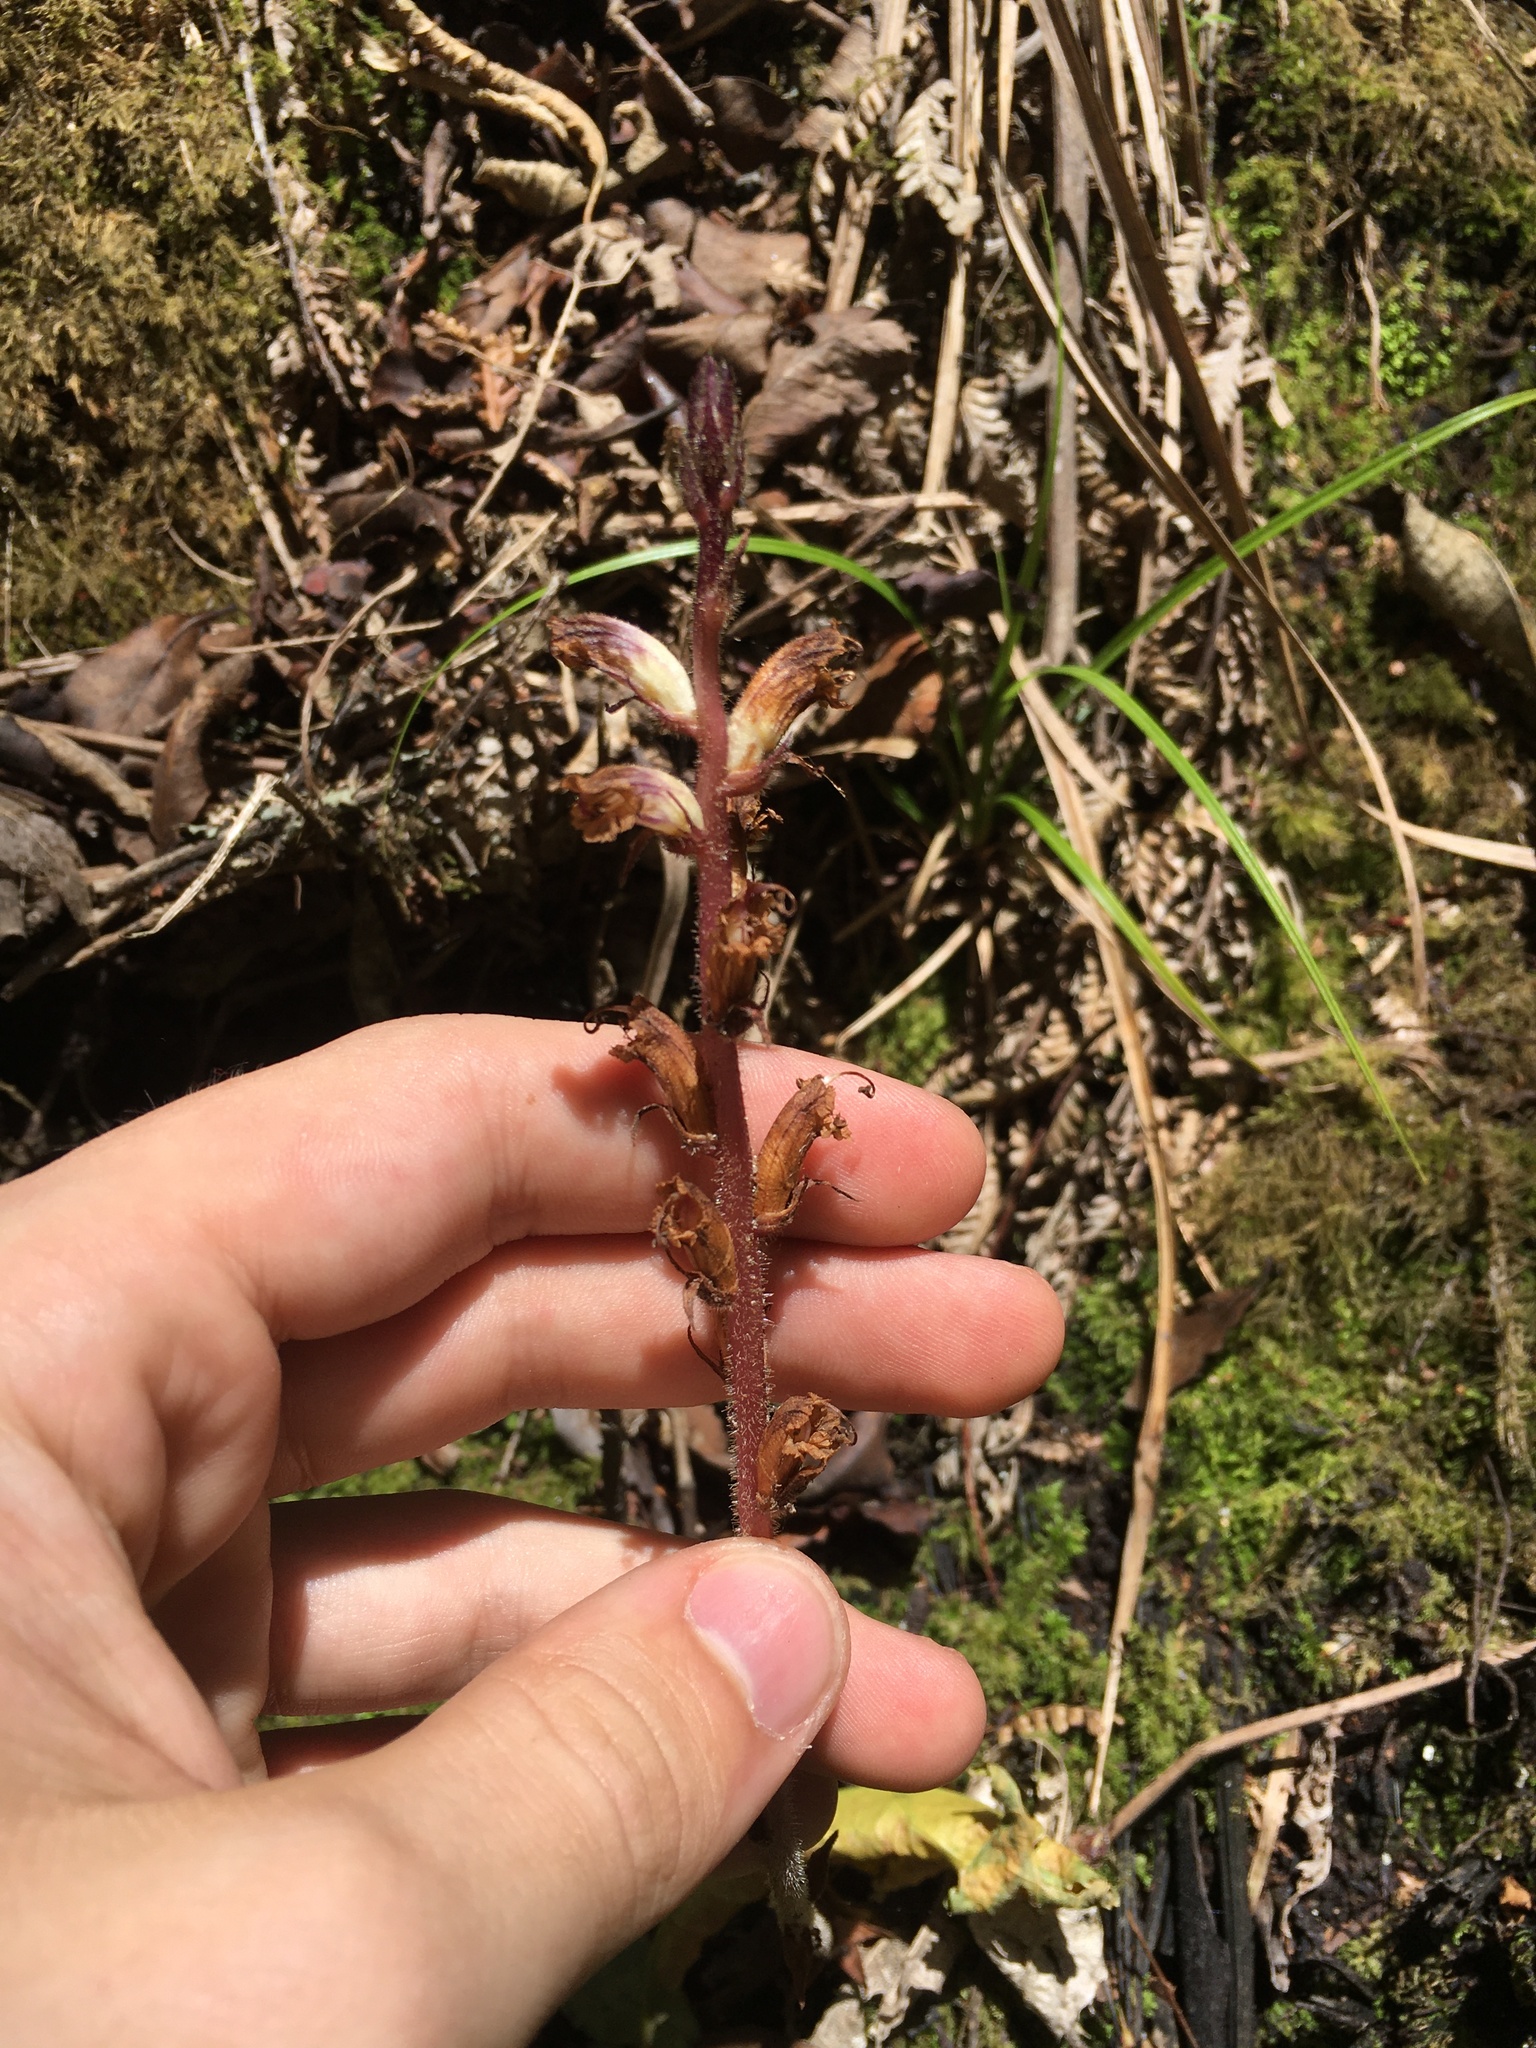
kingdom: Plantae
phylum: Tracheophyta
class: Magnoliopsida
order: Lamiales
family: Orobanchaceae
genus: Orobanche
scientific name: Orobanche minor
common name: Common broomrape
